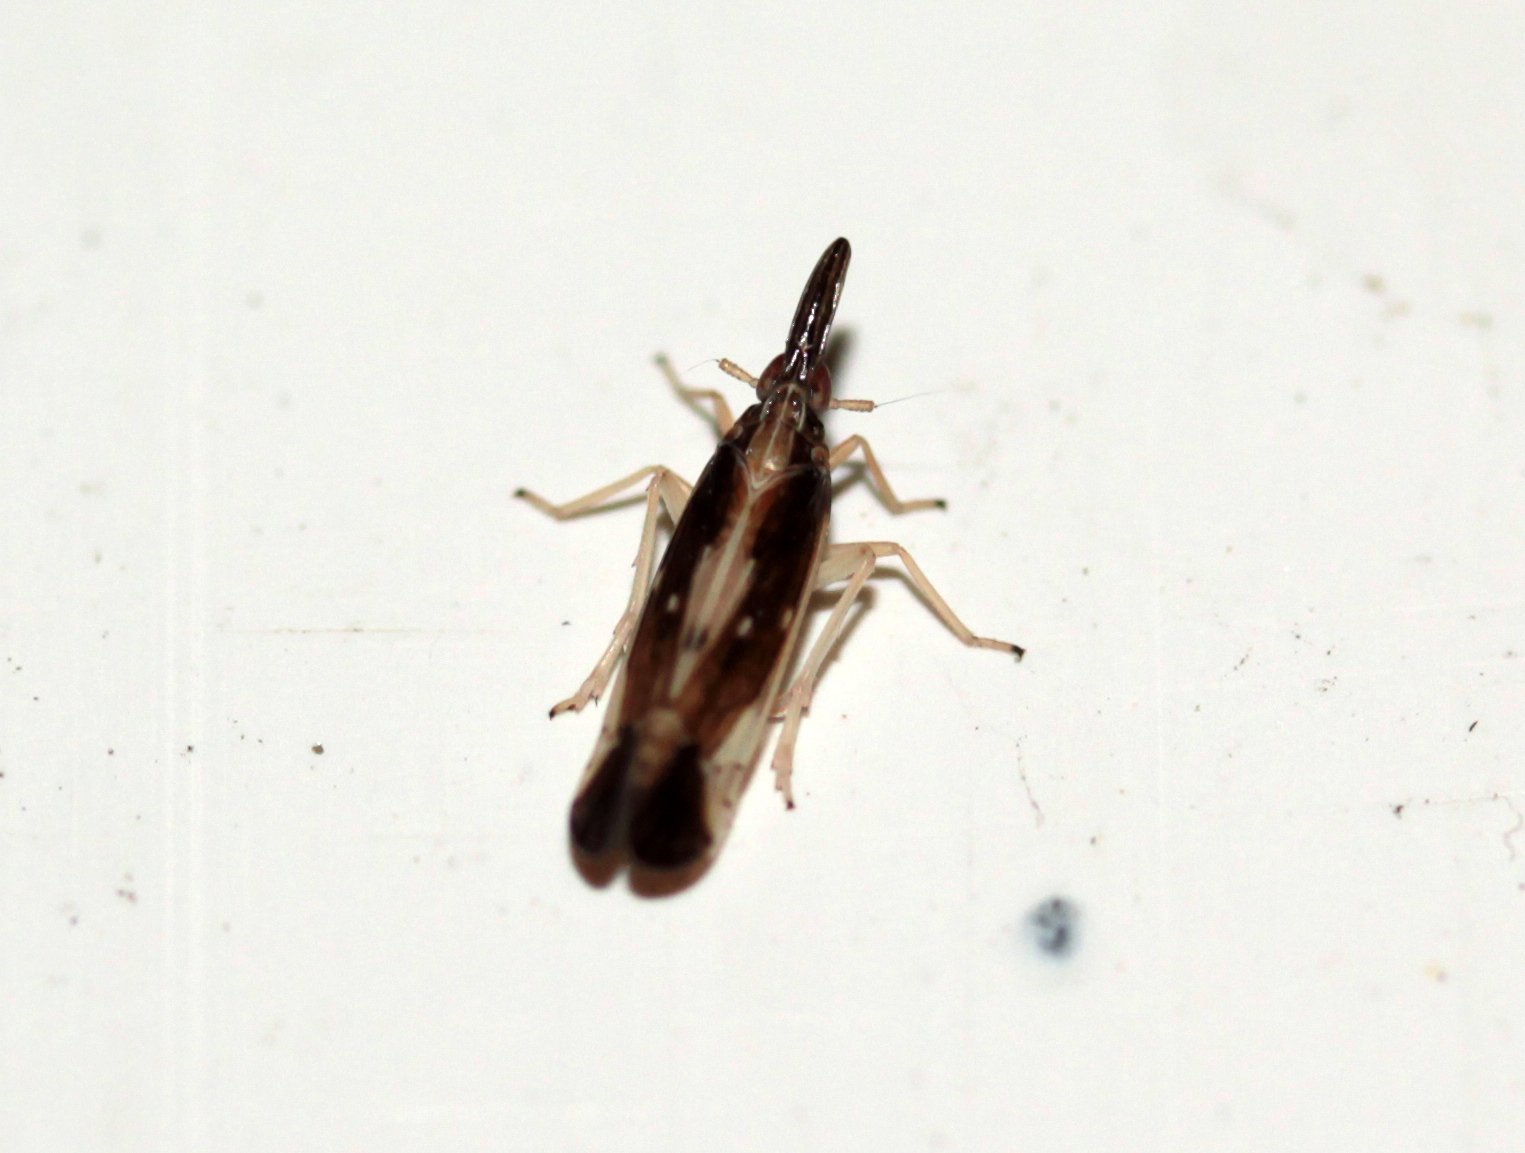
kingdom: Animalia
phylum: Arthropoda
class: Insecta
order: Hemiptera
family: Delphacidae
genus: Terauchiana
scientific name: Terauchiana singularis
